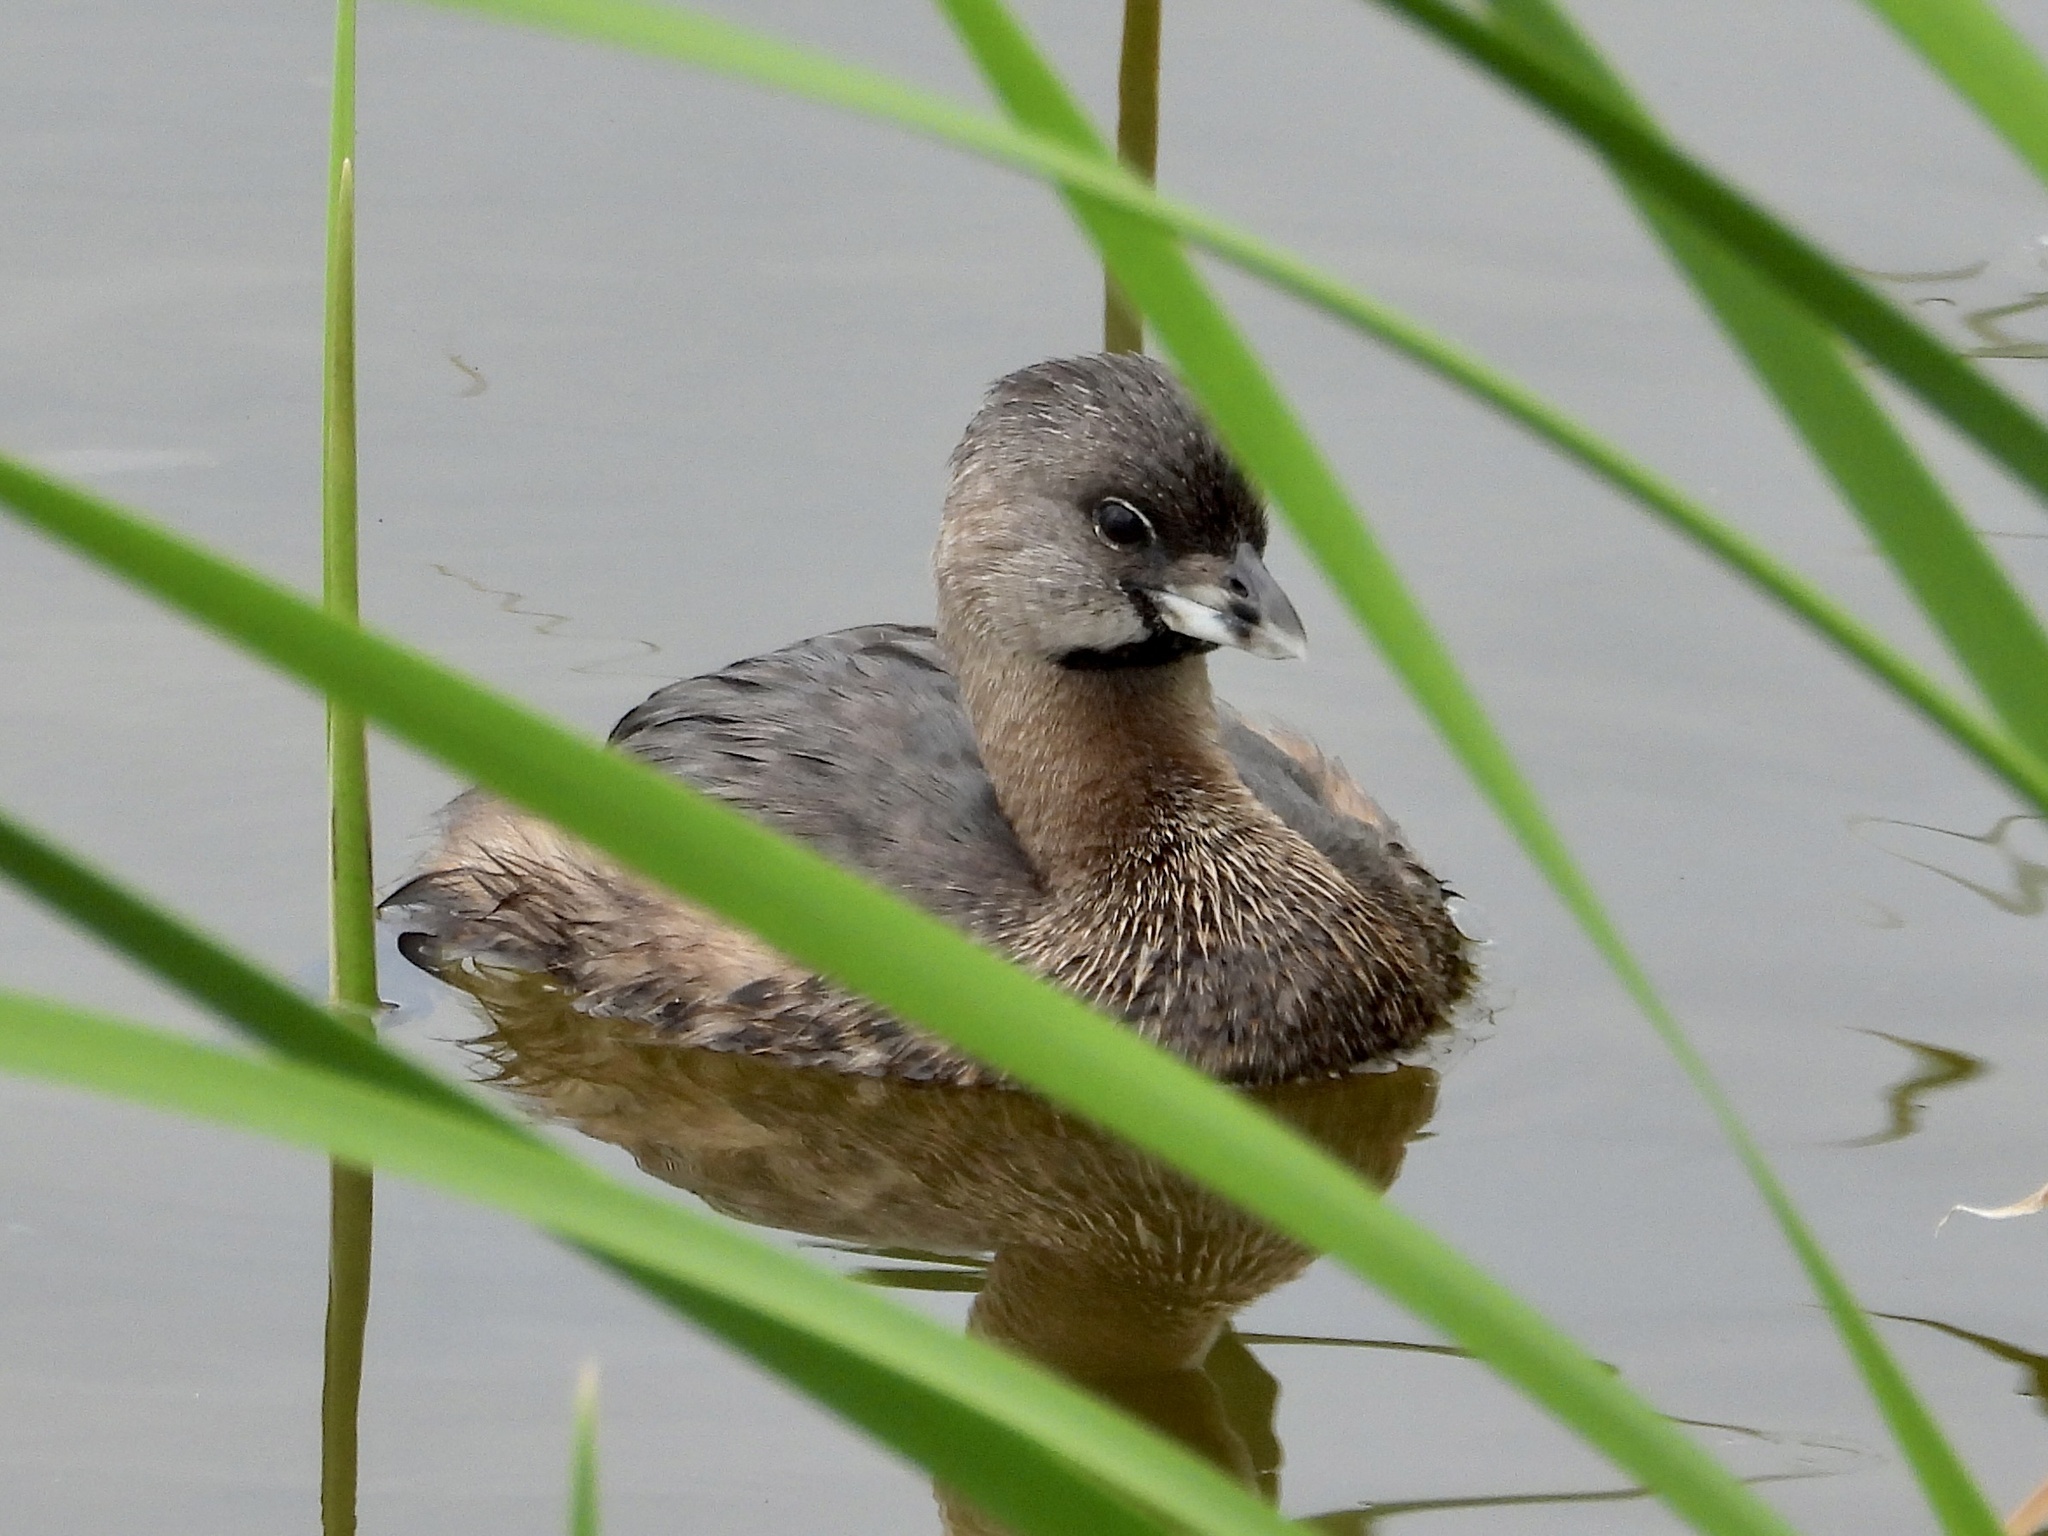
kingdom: Animalia
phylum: Chordata
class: Aves
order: Podicipediformes
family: Podicipedidae
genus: Podilymbus
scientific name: Podilymbus podiceps
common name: Pied-billed grebe
